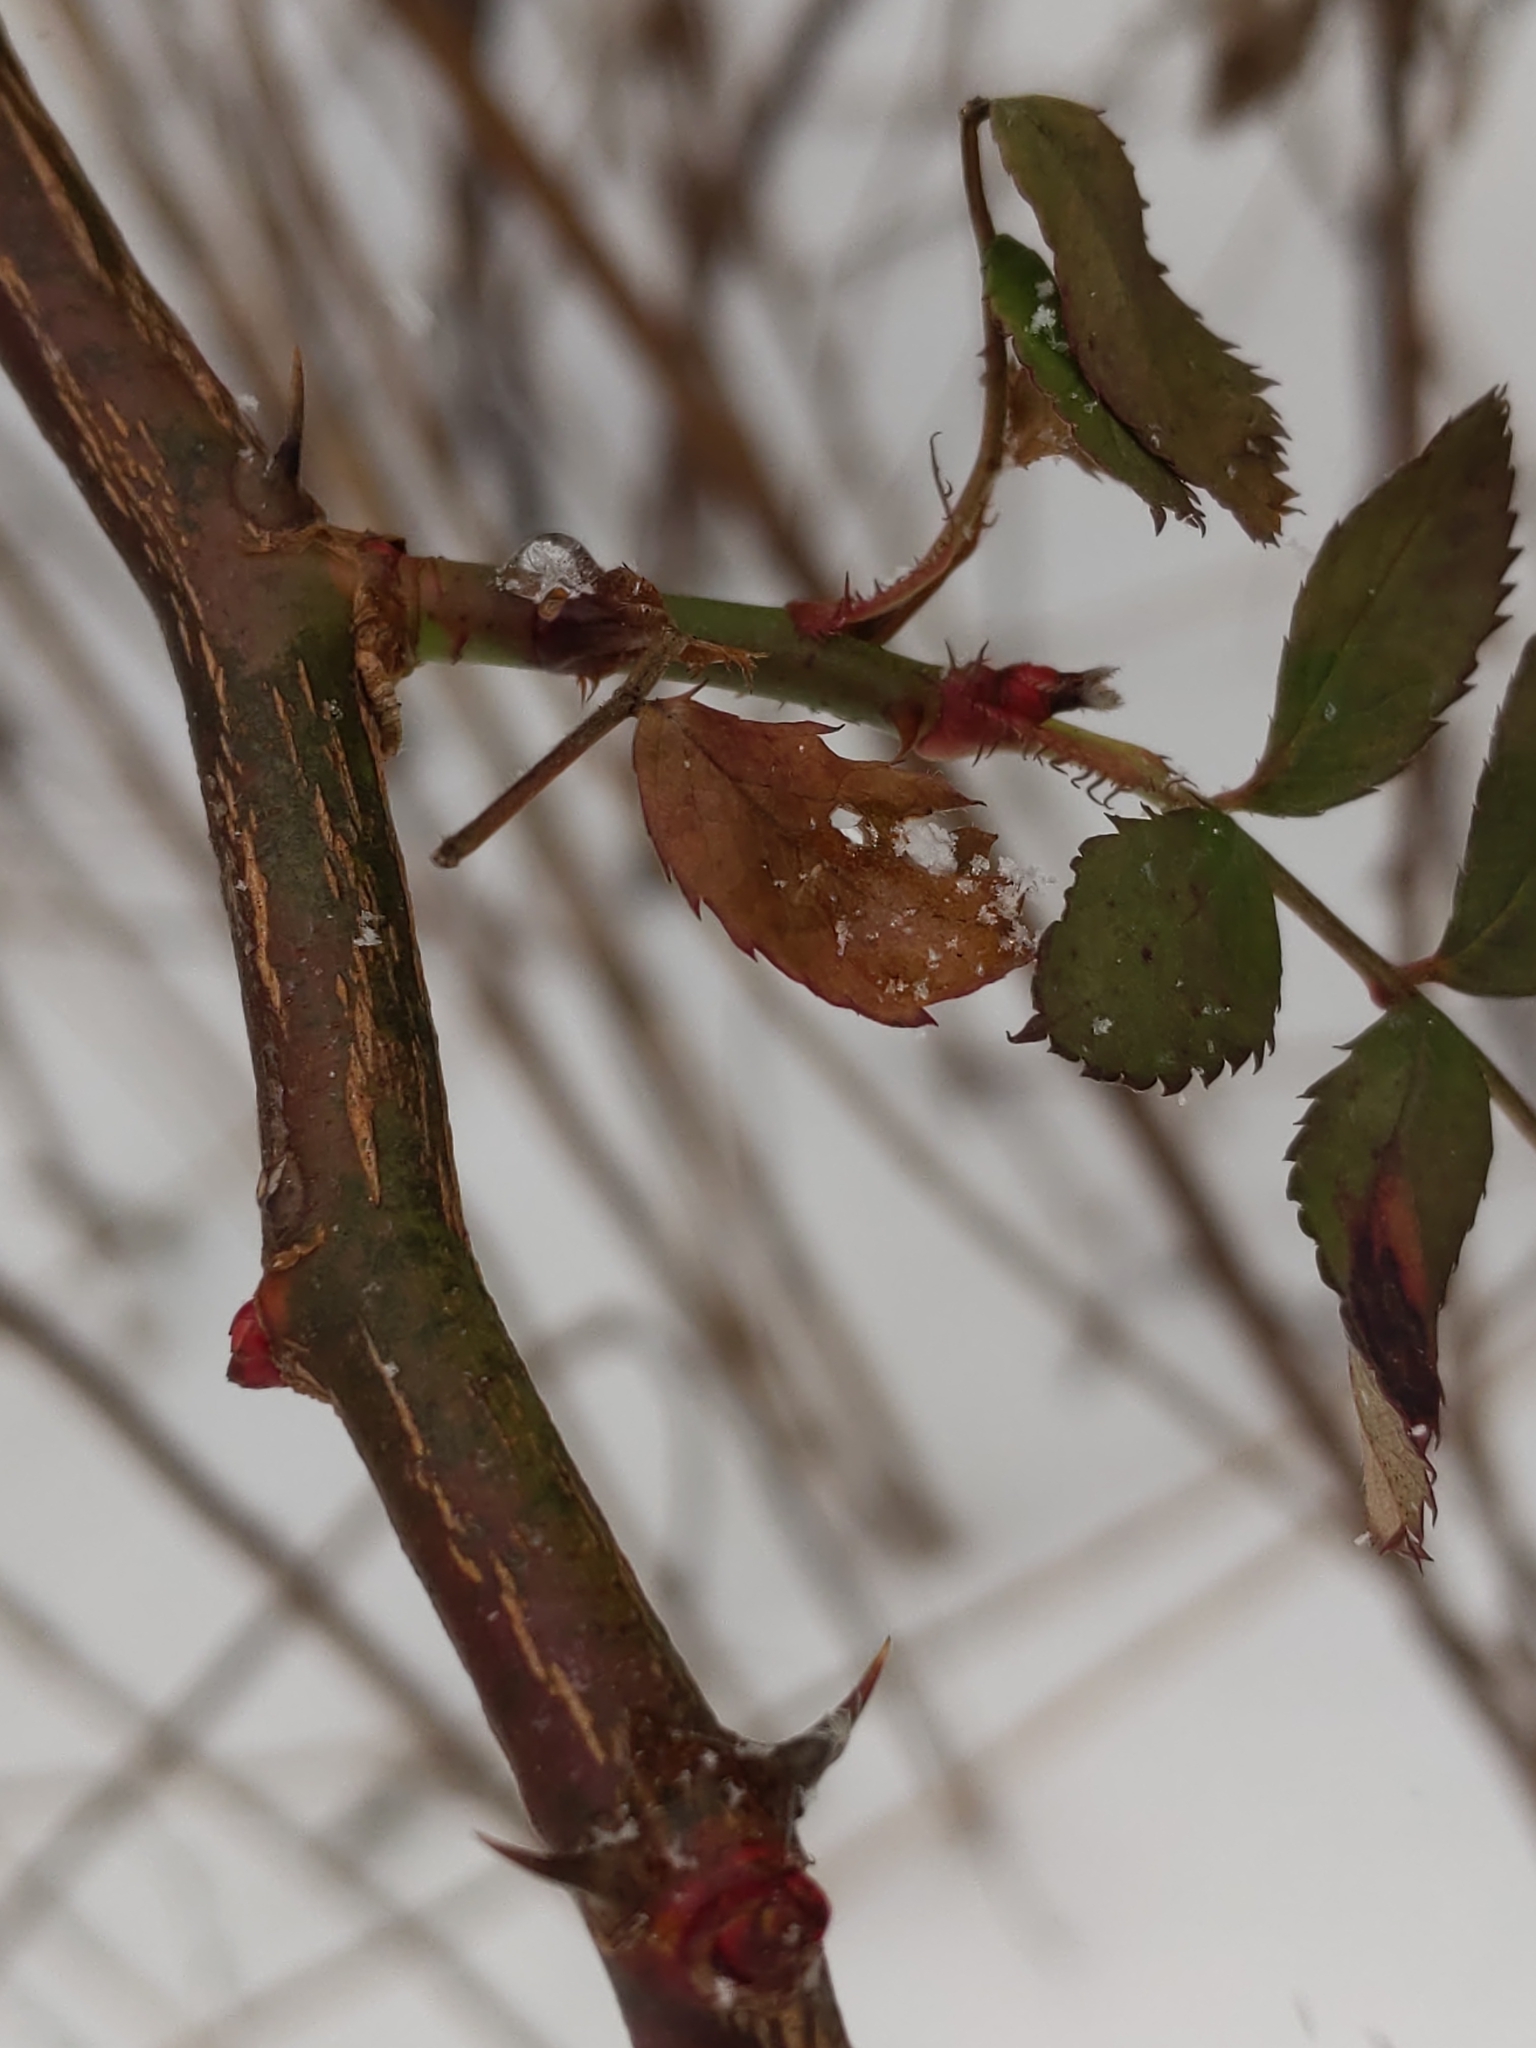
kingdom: Plantae
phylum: Tracheophyta
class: Magnoliopsida
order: Rosales
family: Rosaceae
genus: Rosa
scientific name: Rosa multiflora
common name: Multiflora rose
